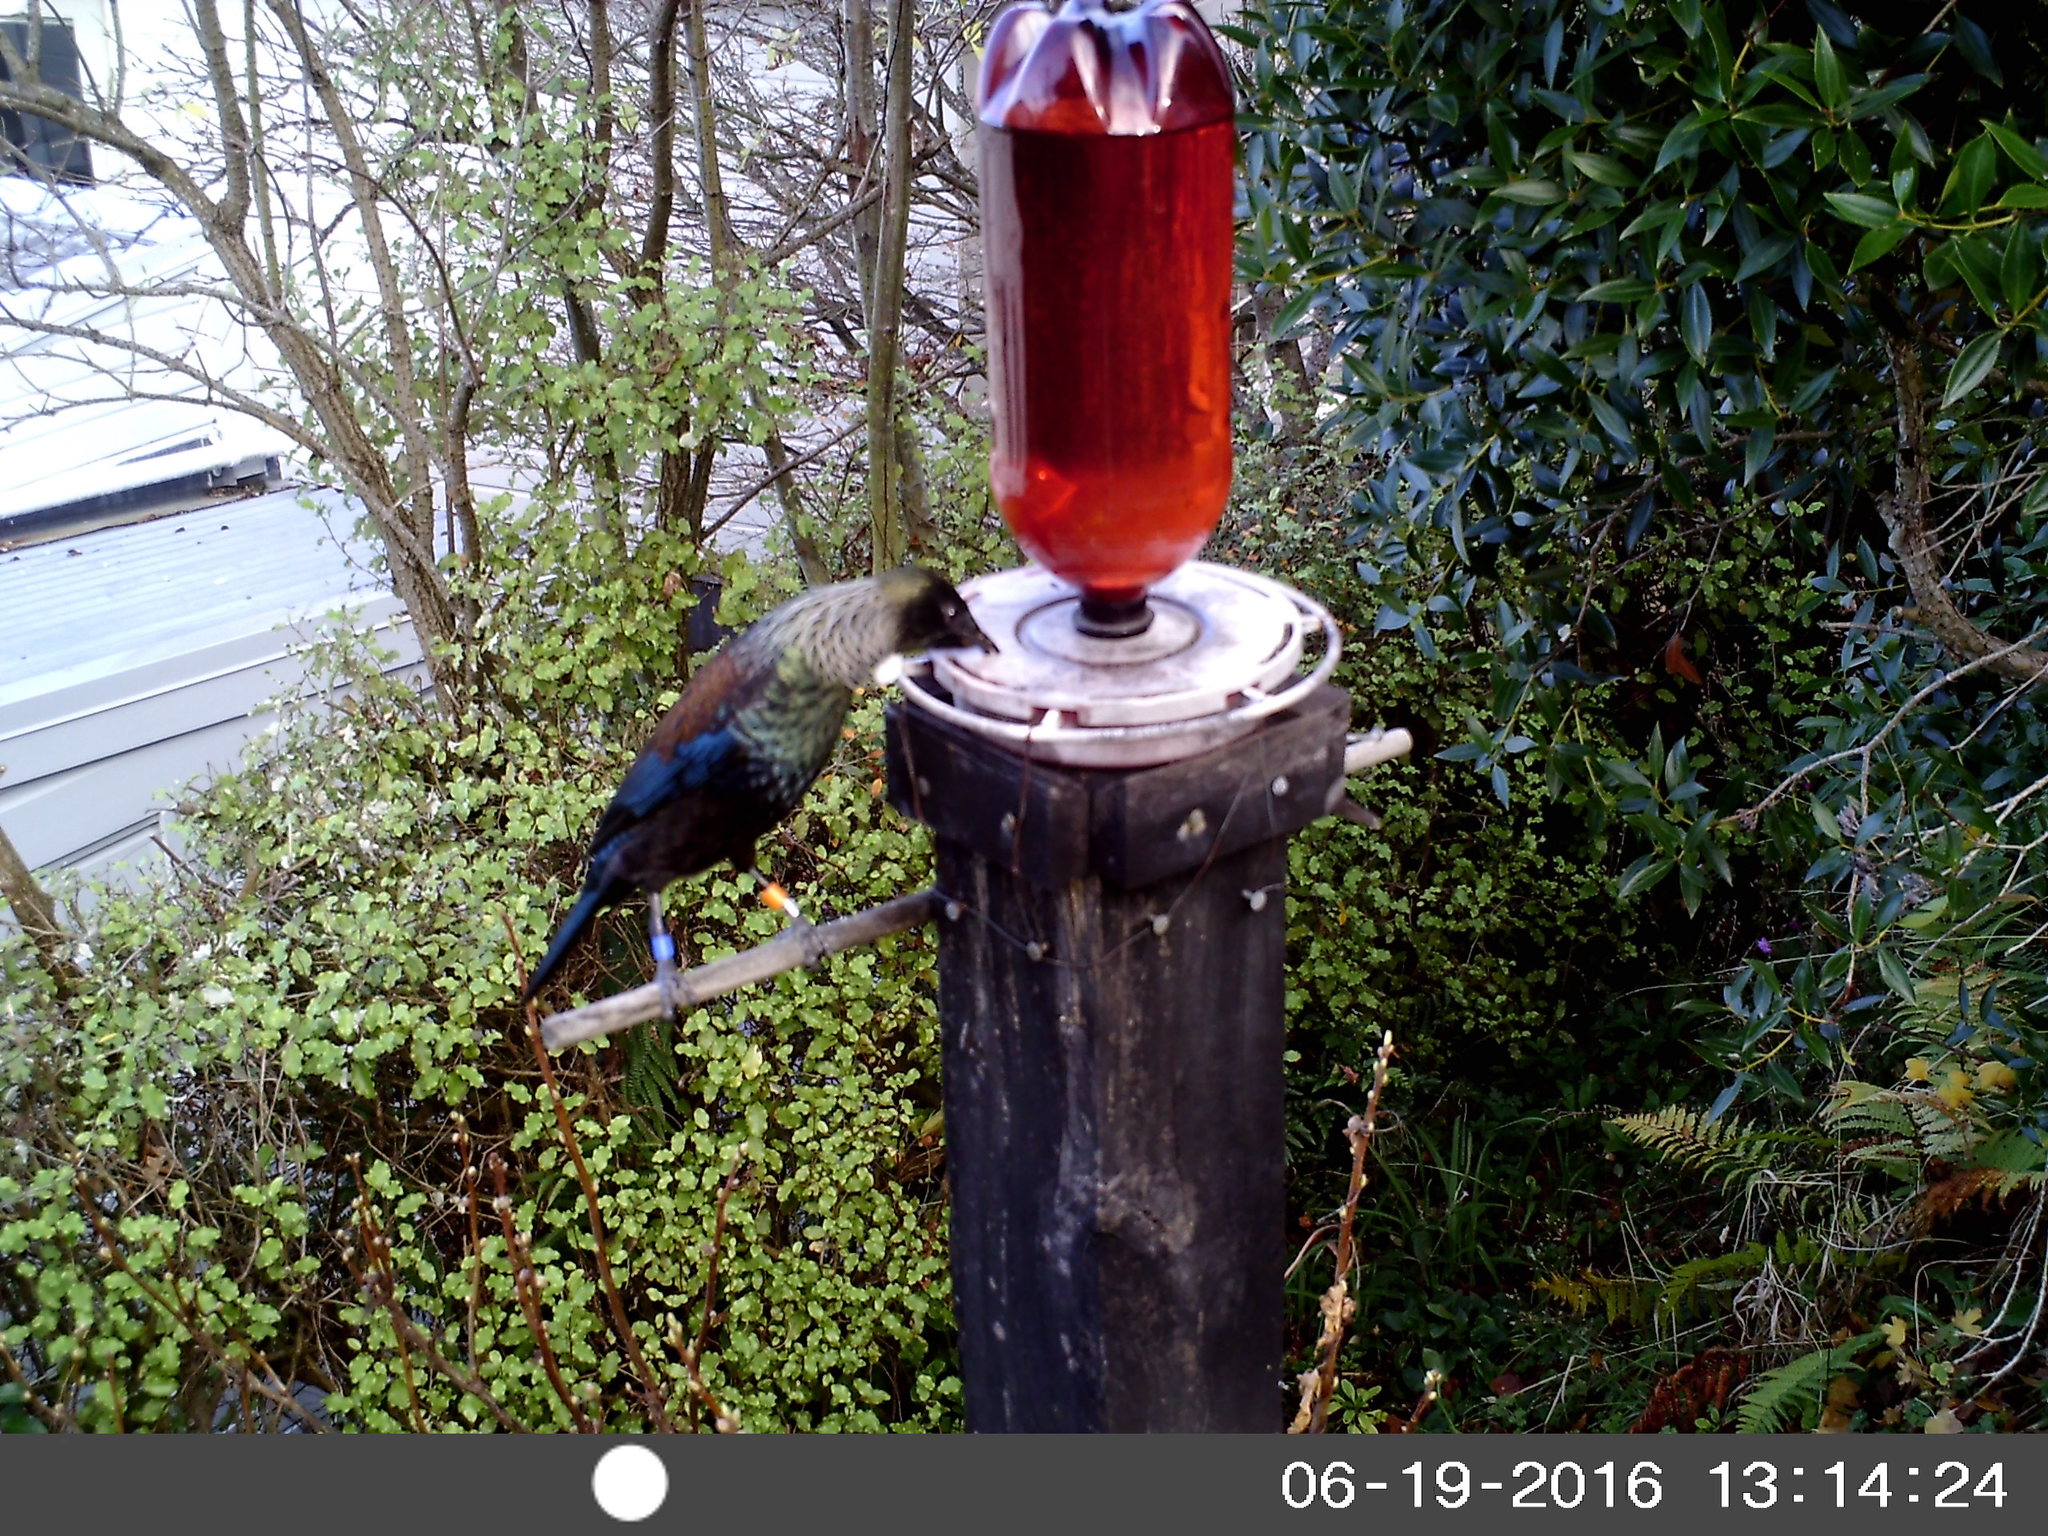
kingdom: Animalia
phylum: Chordata
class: Aves
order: Passeriformes
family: Meliphagidae
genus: Prosthemadera
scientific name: Prosthemadera novaeseelandiae
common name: Tui
